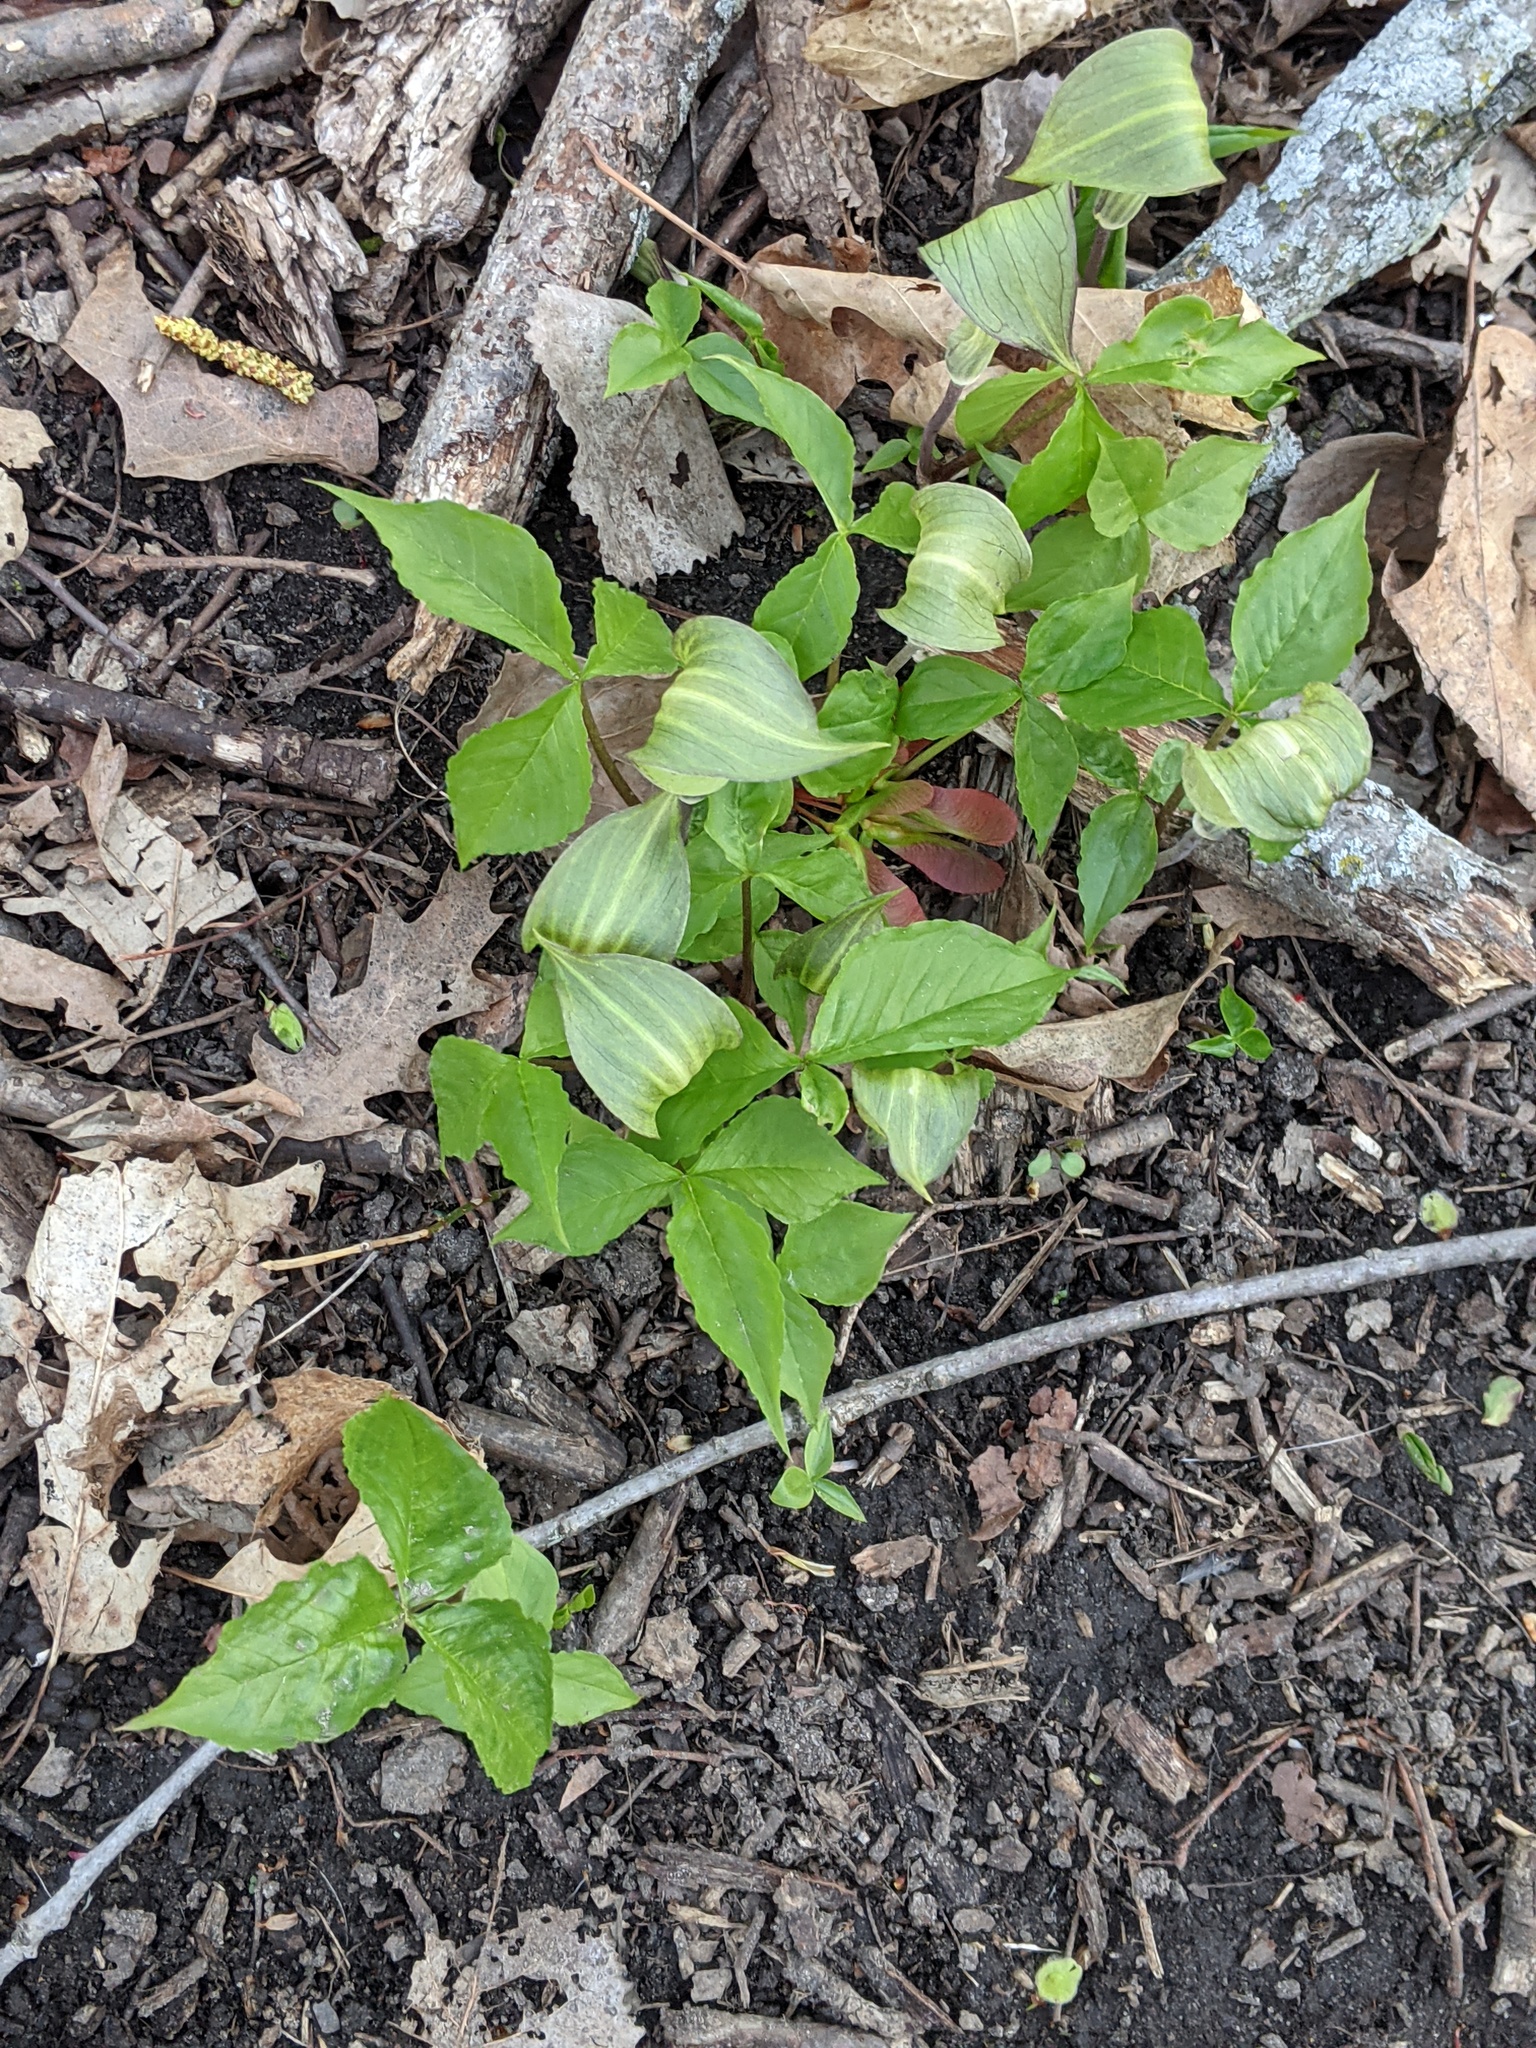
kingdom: Plantae
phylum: Tracheophyta
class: Liliopsida
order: Alismatales
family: Araceae
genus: Arisaema
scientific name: Arisaema triphyllum
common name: Jack-in-the-pulpit
